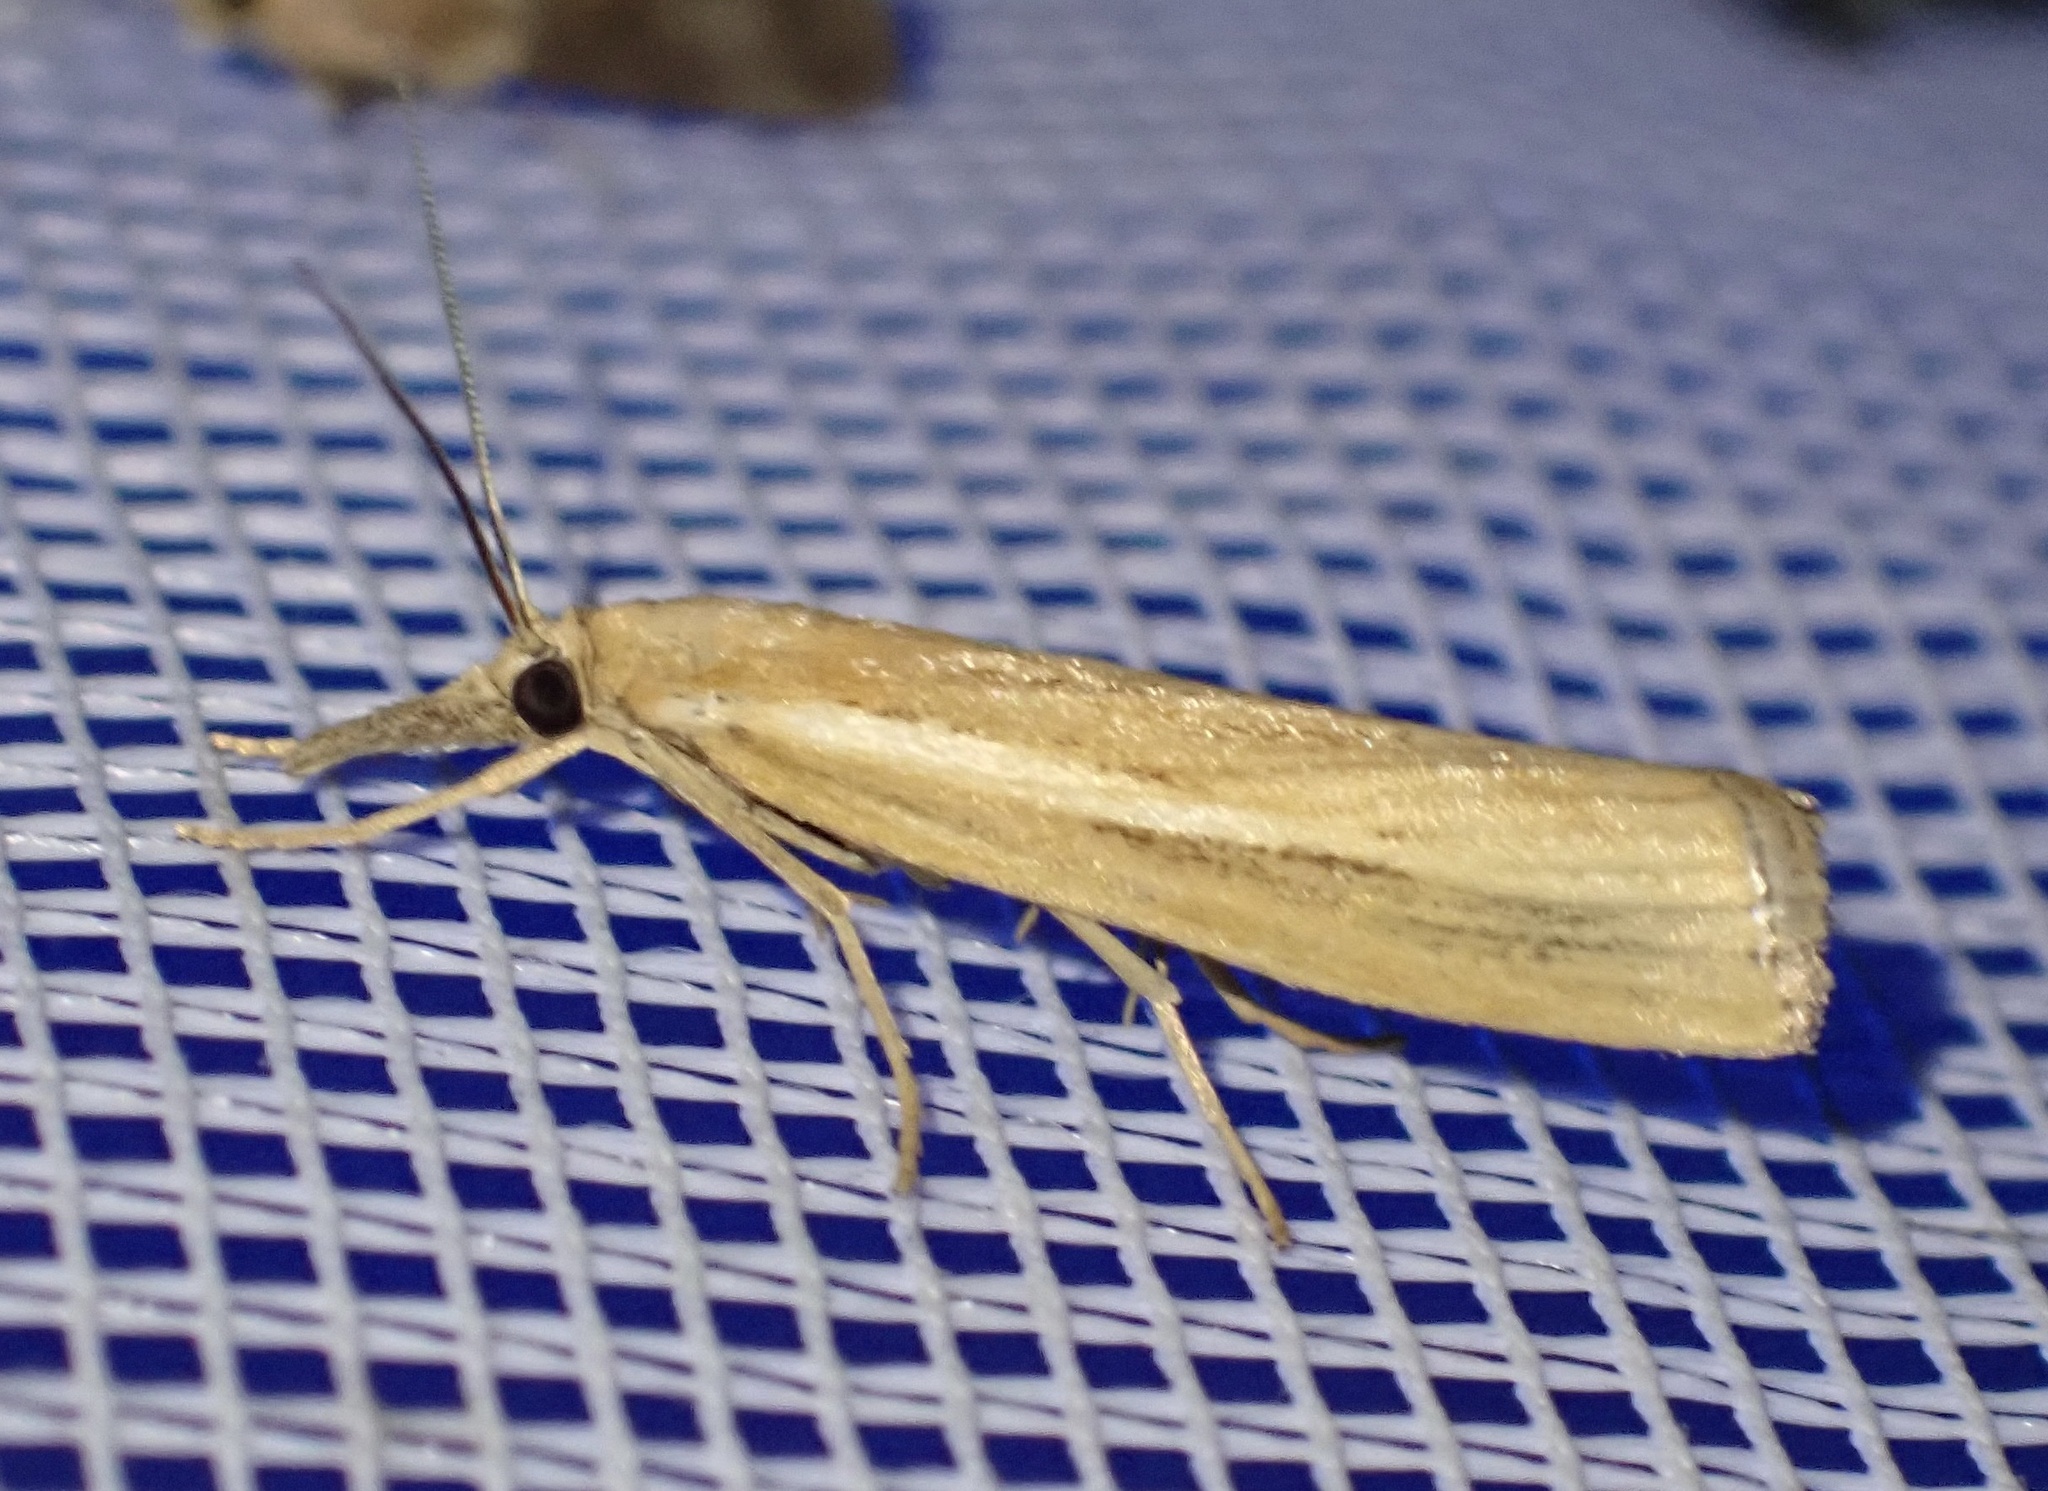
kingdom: Animalia
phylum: Arthropoda
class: Insecta
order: Lepidoptera
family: Crambidae
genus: Agriphila
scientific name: Agriphila tristellus
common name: Common grass-veneer
